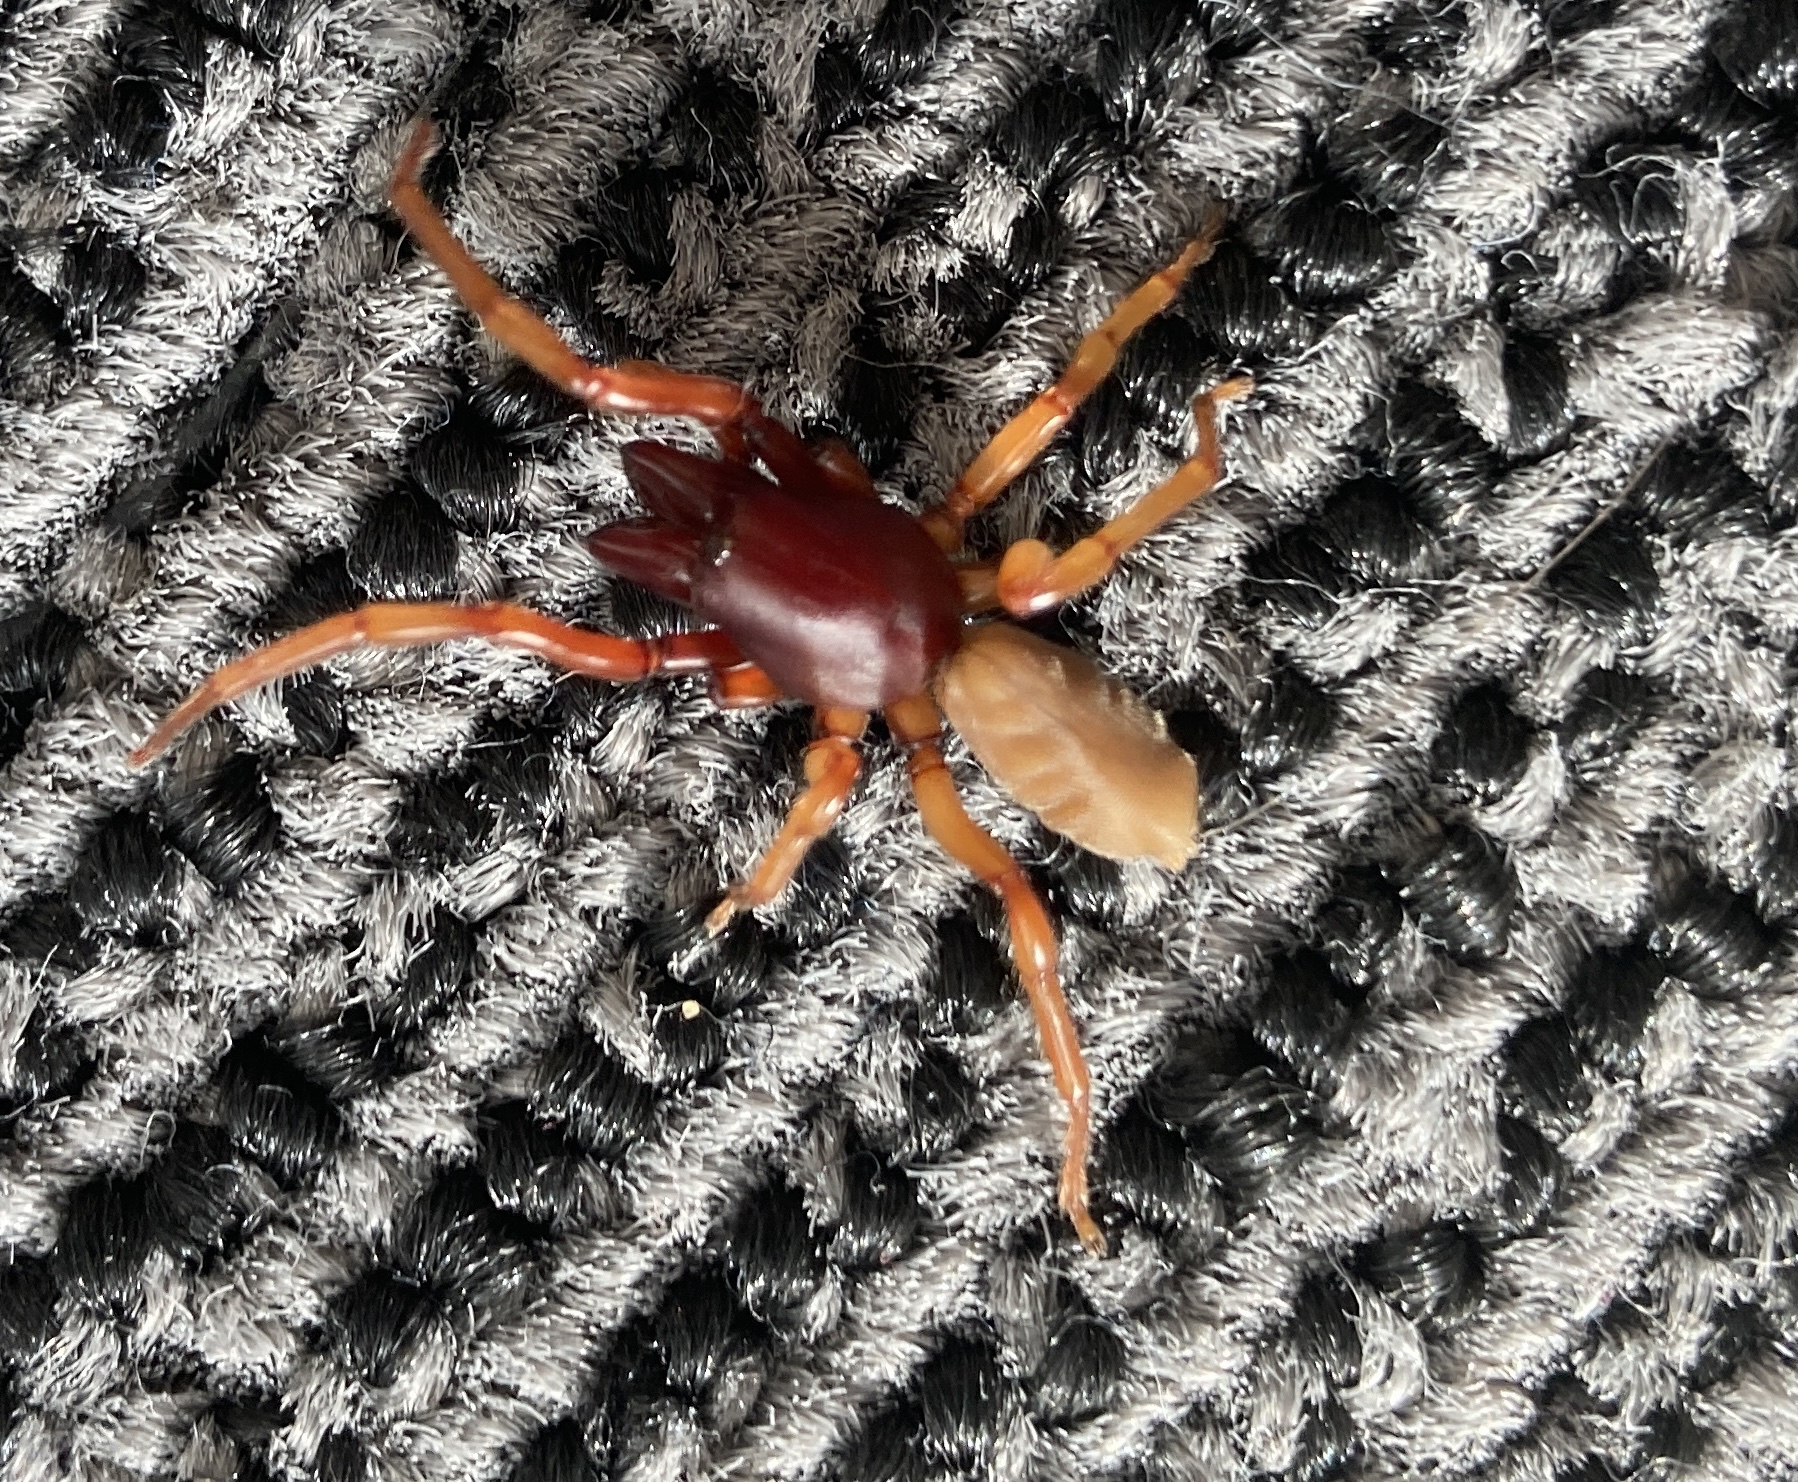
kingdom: Animalia
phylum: Arthropoda
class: Arachnida
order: Araneae
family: Dysderidae
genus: Dysdera
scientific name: Dysdera crocata
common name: Woodlouse spider
